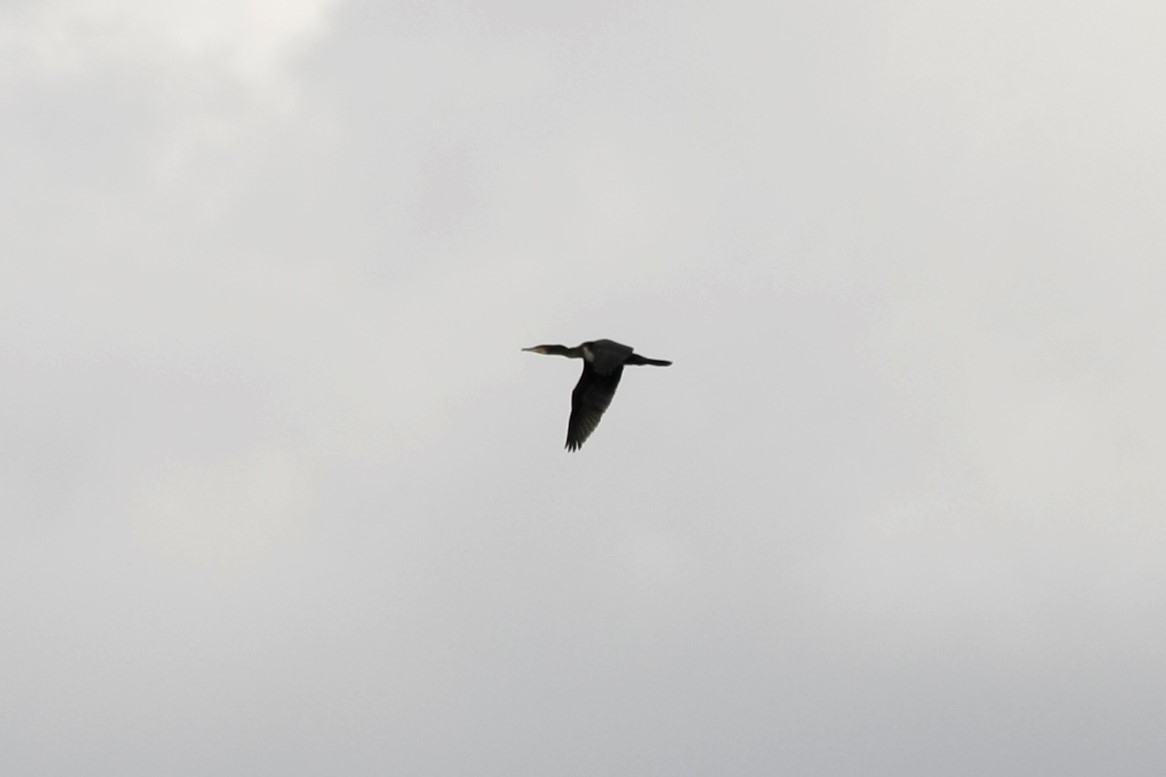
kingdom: Animalia
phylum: Chordata
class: Aves
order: Suliformes
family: Phalacrocoracidae
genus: Phalacrocorax
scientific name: Phalacrocorax carbo
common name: Great cormorant
